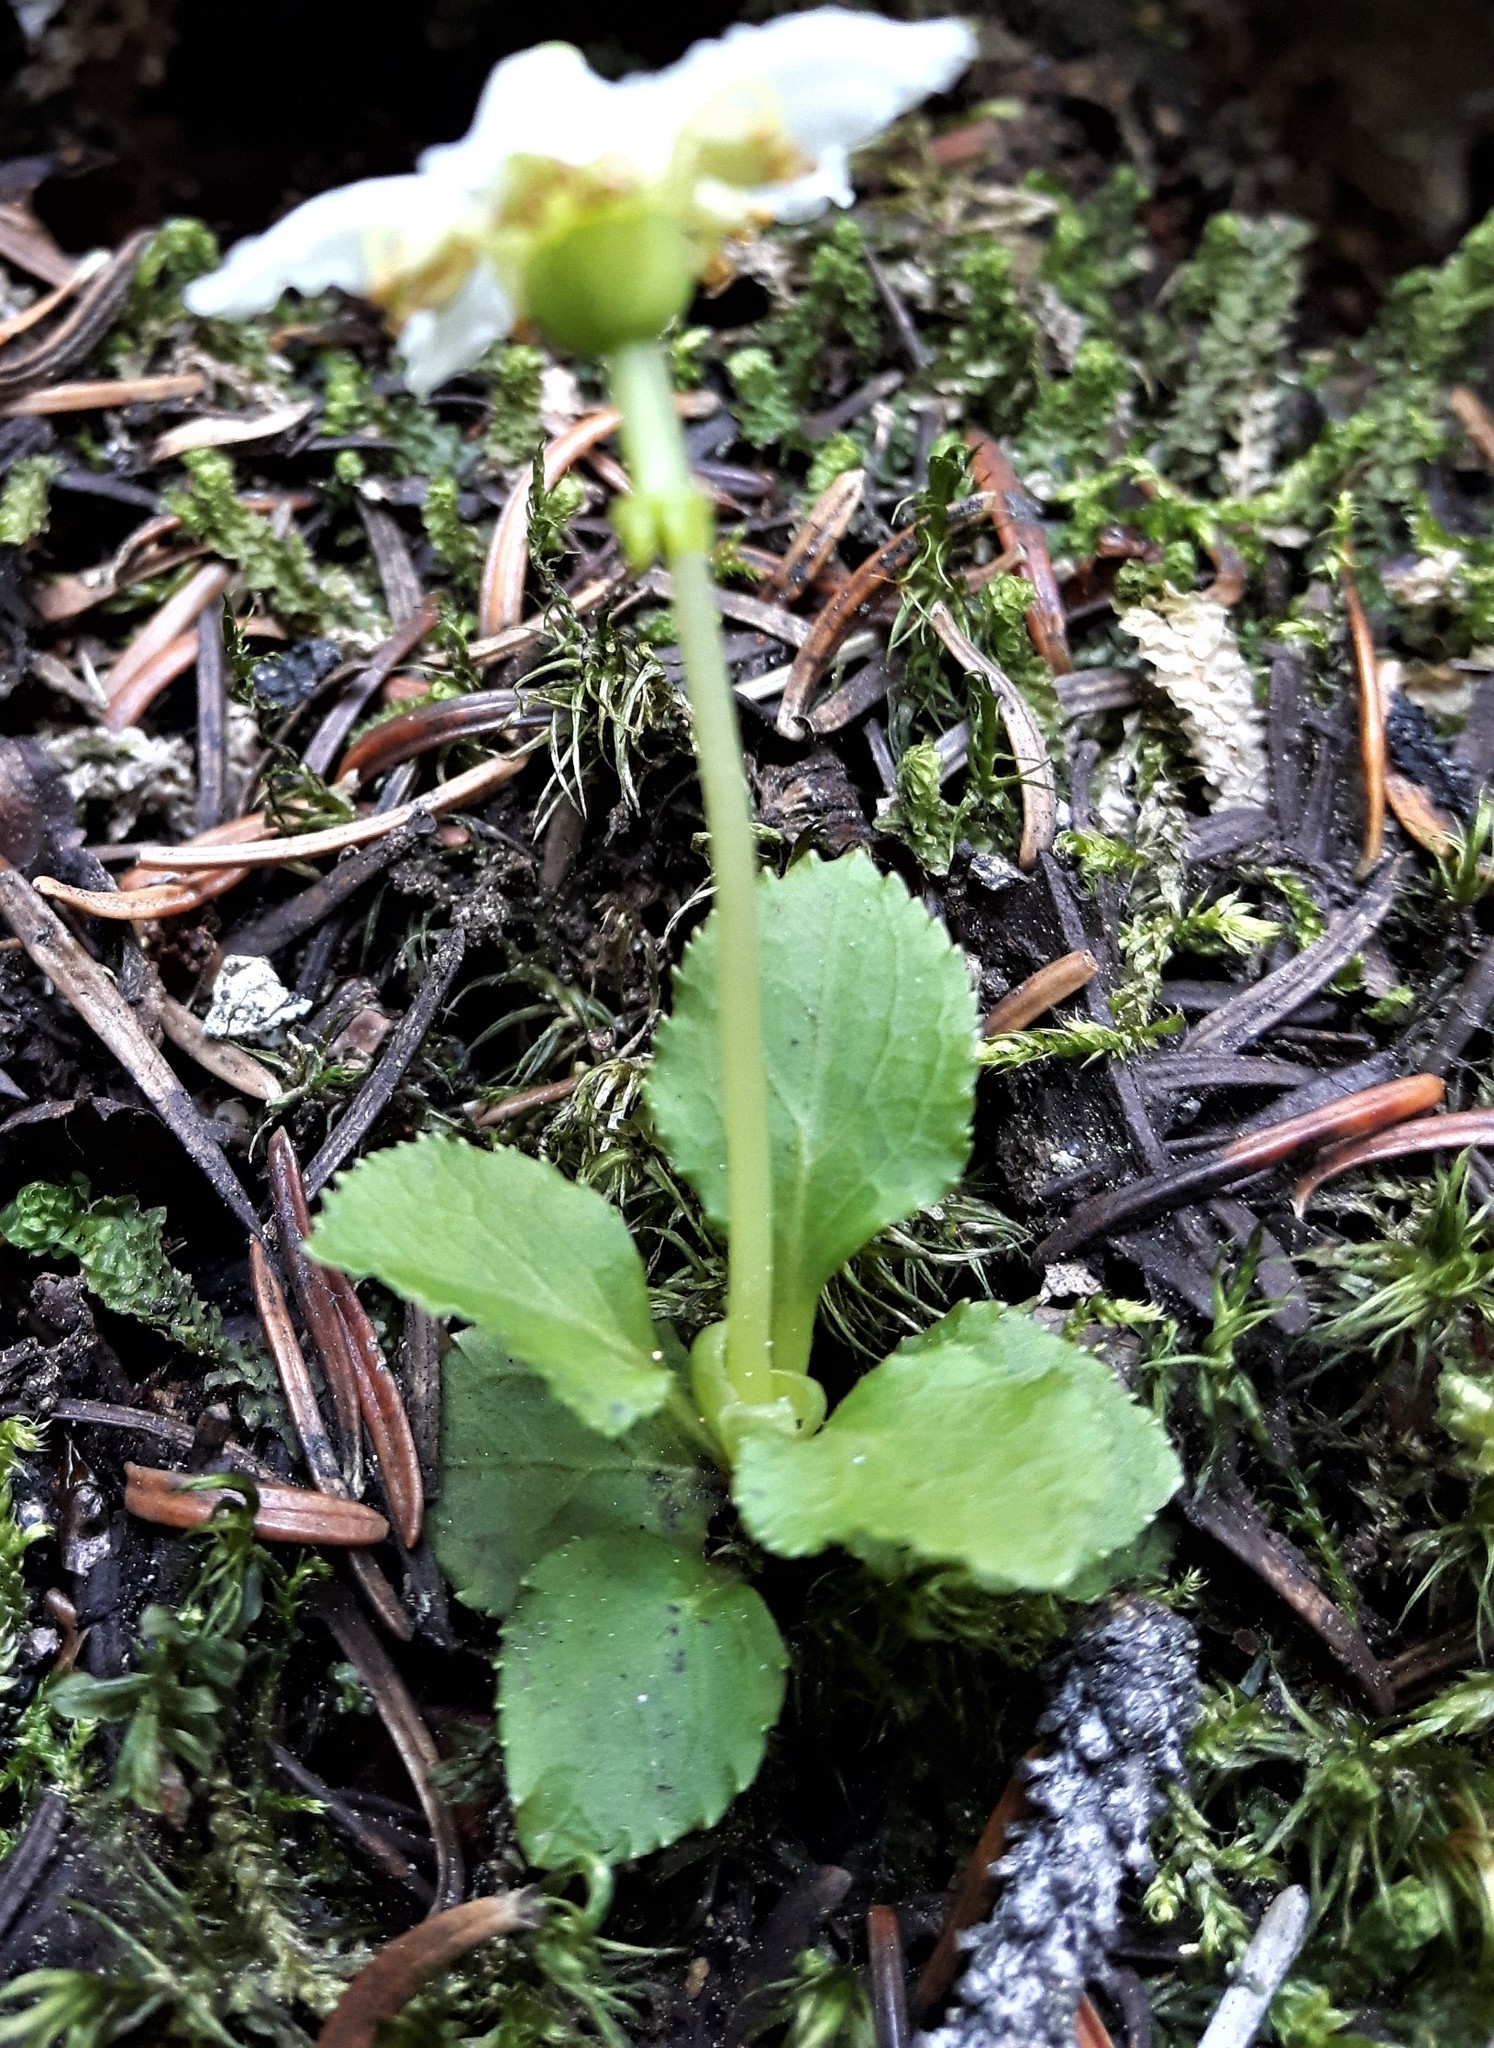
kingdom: Plantae
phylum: Tracheophyta
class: Magnoliopsida
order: Ericales
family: Ericaceae
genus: Moneses
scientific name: Moneses uniflora
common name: One-flowered wintergreen
